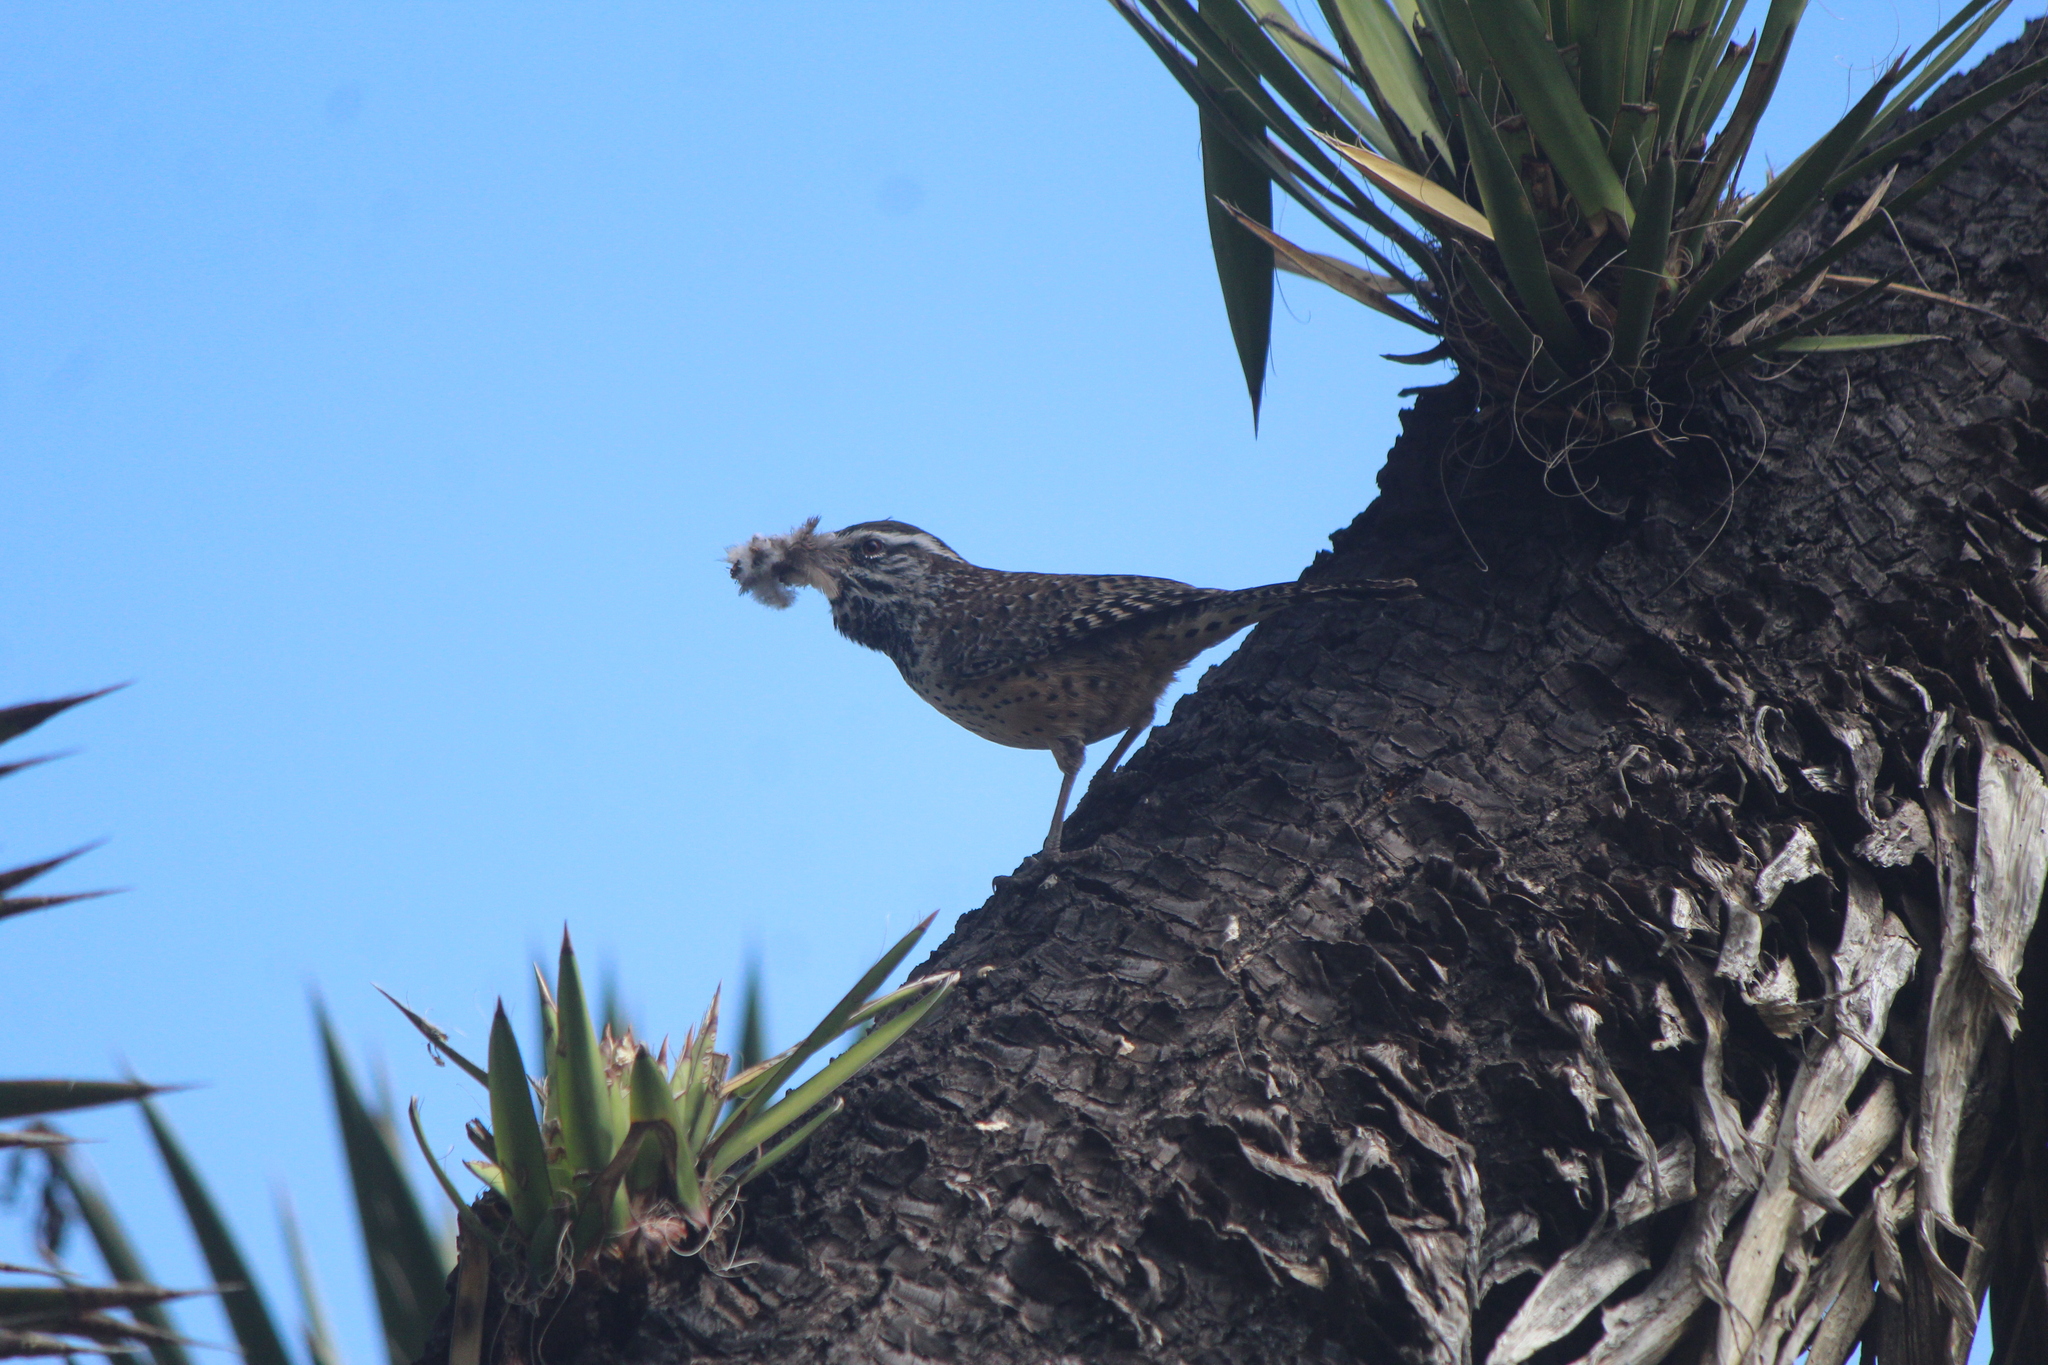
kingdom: Animalia
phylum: Chordata
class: Aves
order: Passeriformes
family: Troglodytidae
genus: Campylorhynchus
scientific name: Campylorhynchus brunneicapillus
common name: Cactus wren
